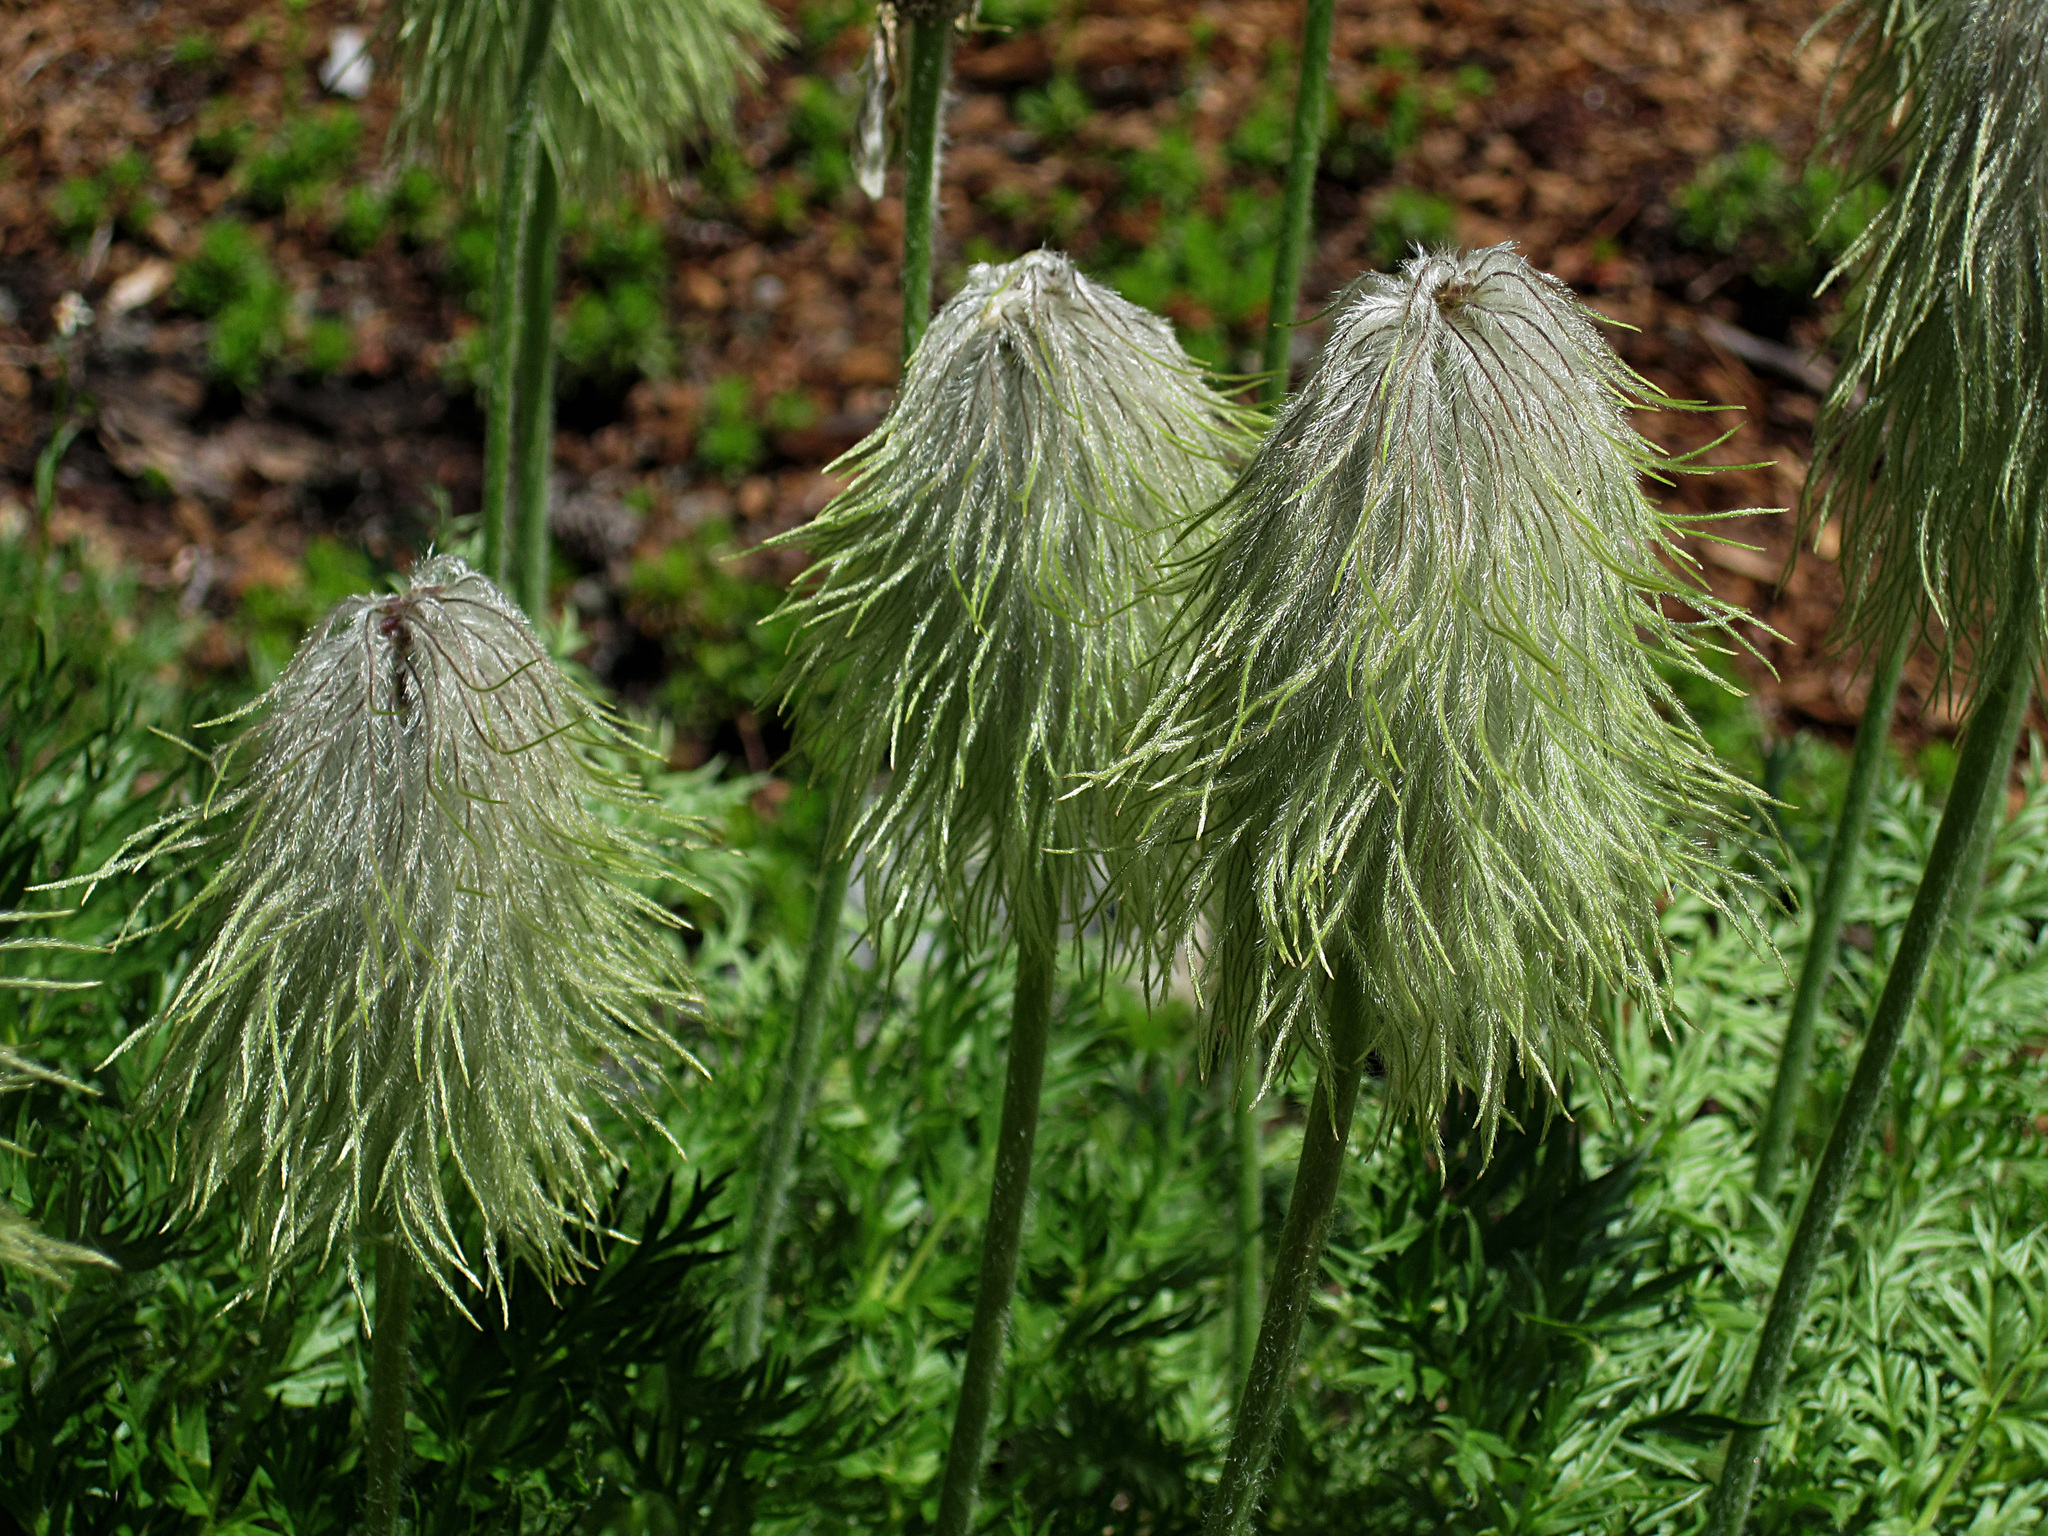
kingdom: Plantae
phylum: Tracheophyta
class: Magnoliopsida
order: Ranunculales
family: Ranunculaceae
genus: Pulsatilla
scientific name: Pulsatilla occidentalis
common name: Mountain pasqueflower
